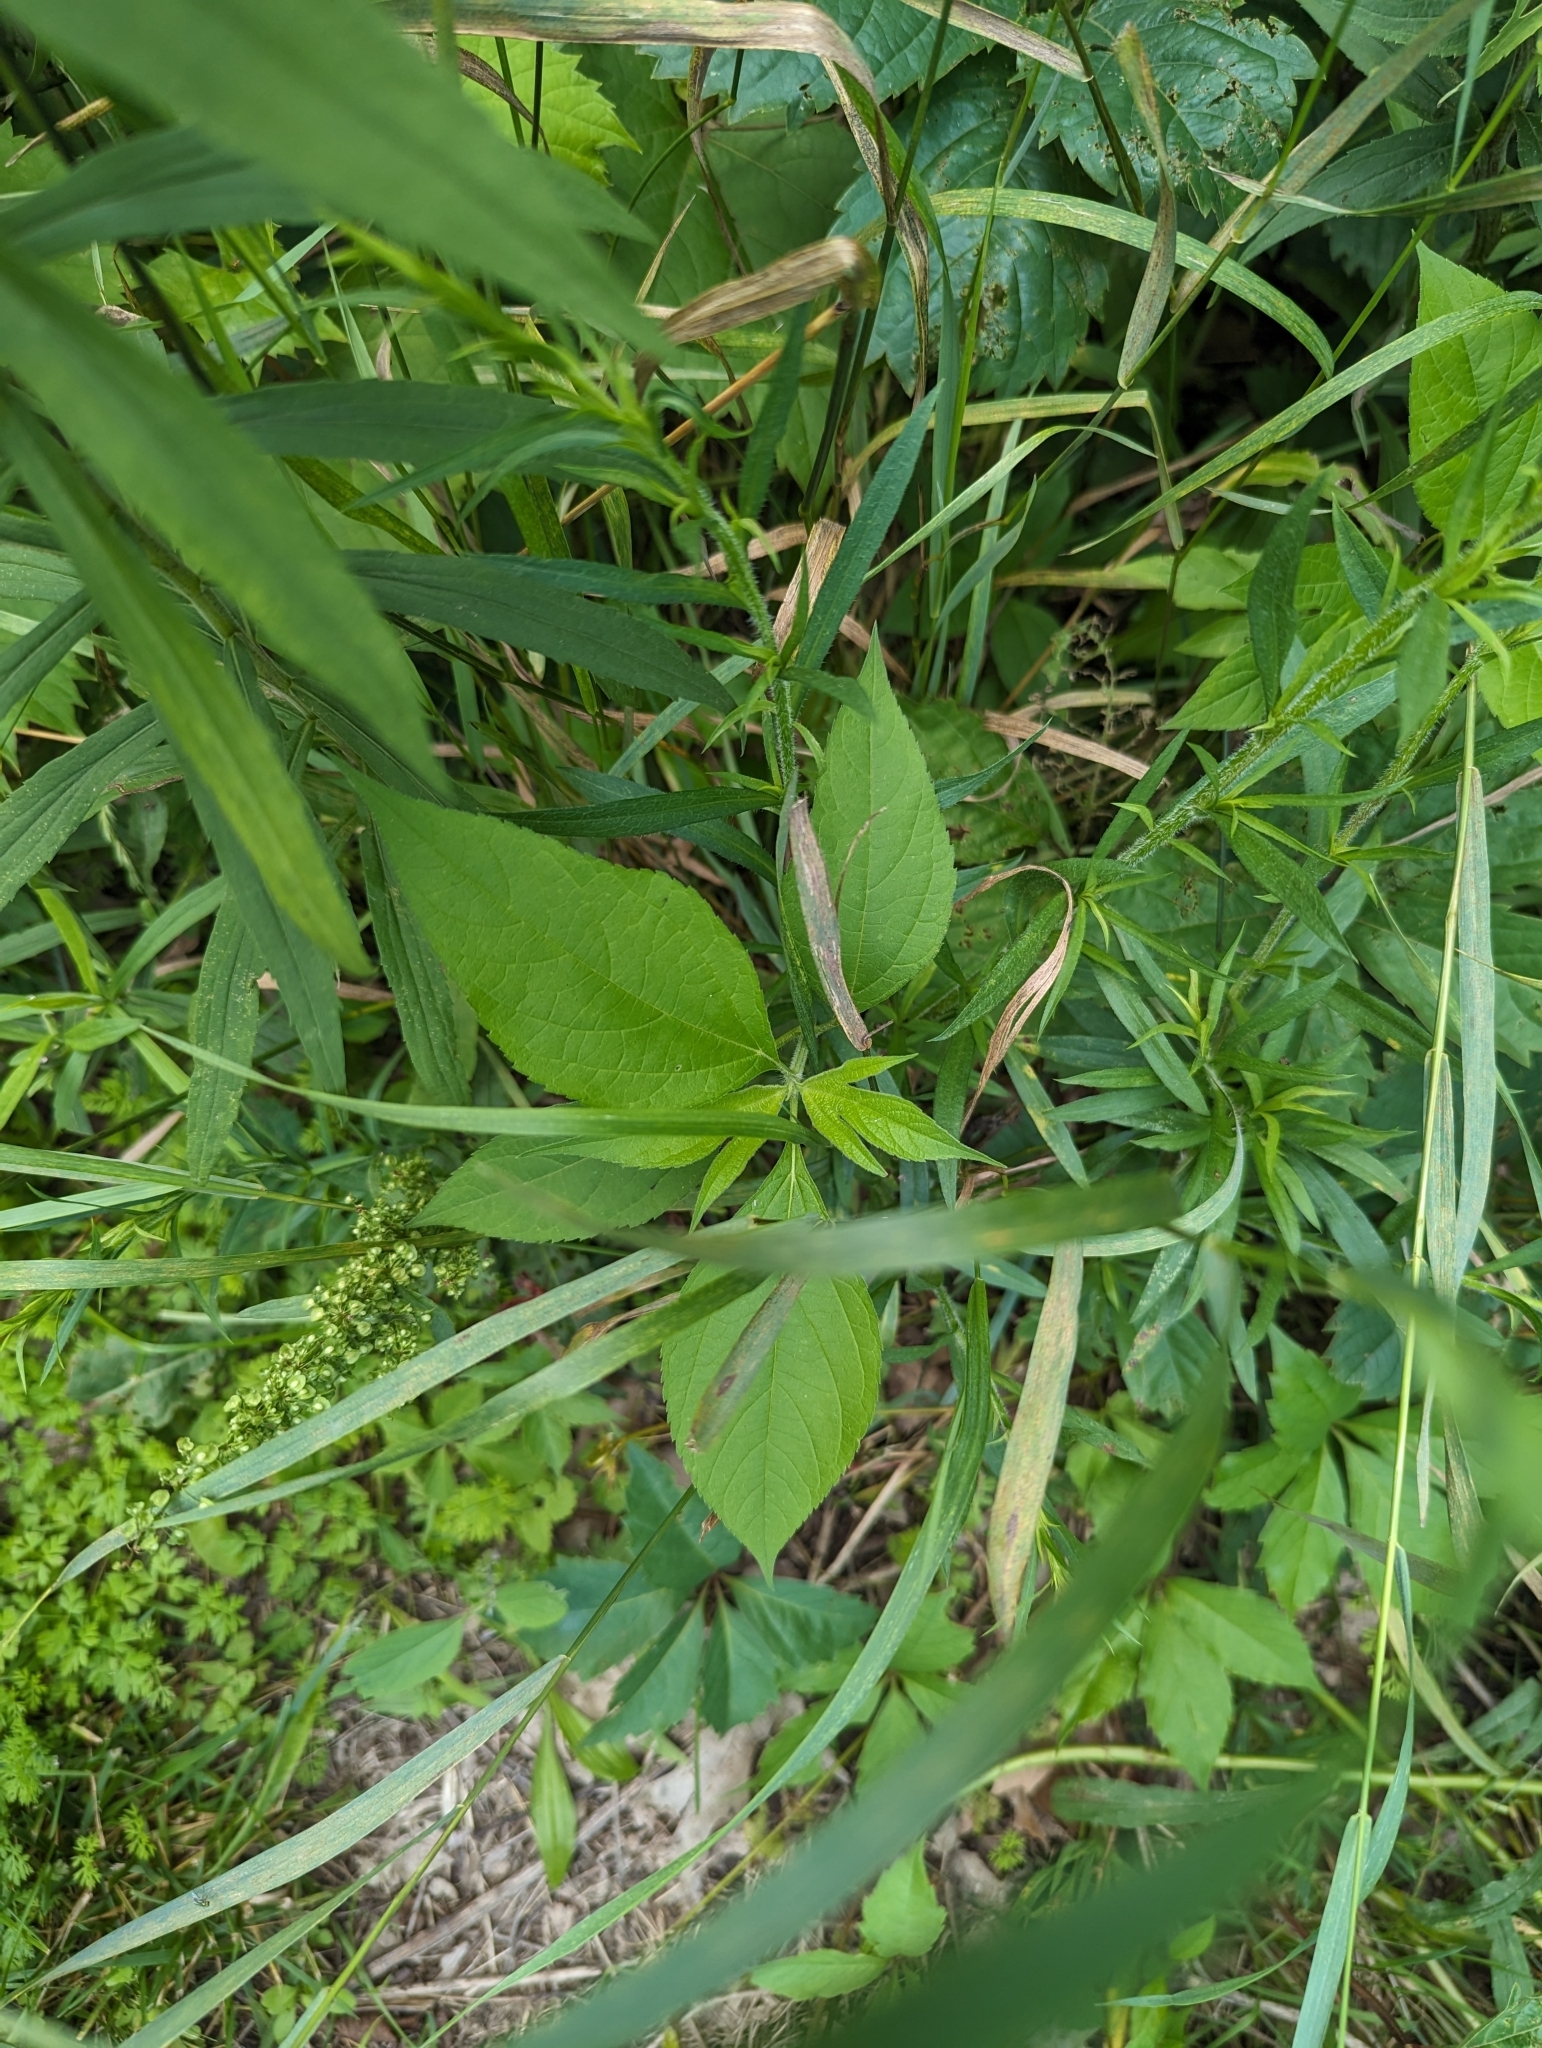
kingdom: Plantae
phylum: Tracheophyta
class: Magnoliopsida
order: Asterales
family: Asteraceae
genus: Ambrosia
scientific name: Ambrosia trifida
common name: Giant ragweed
